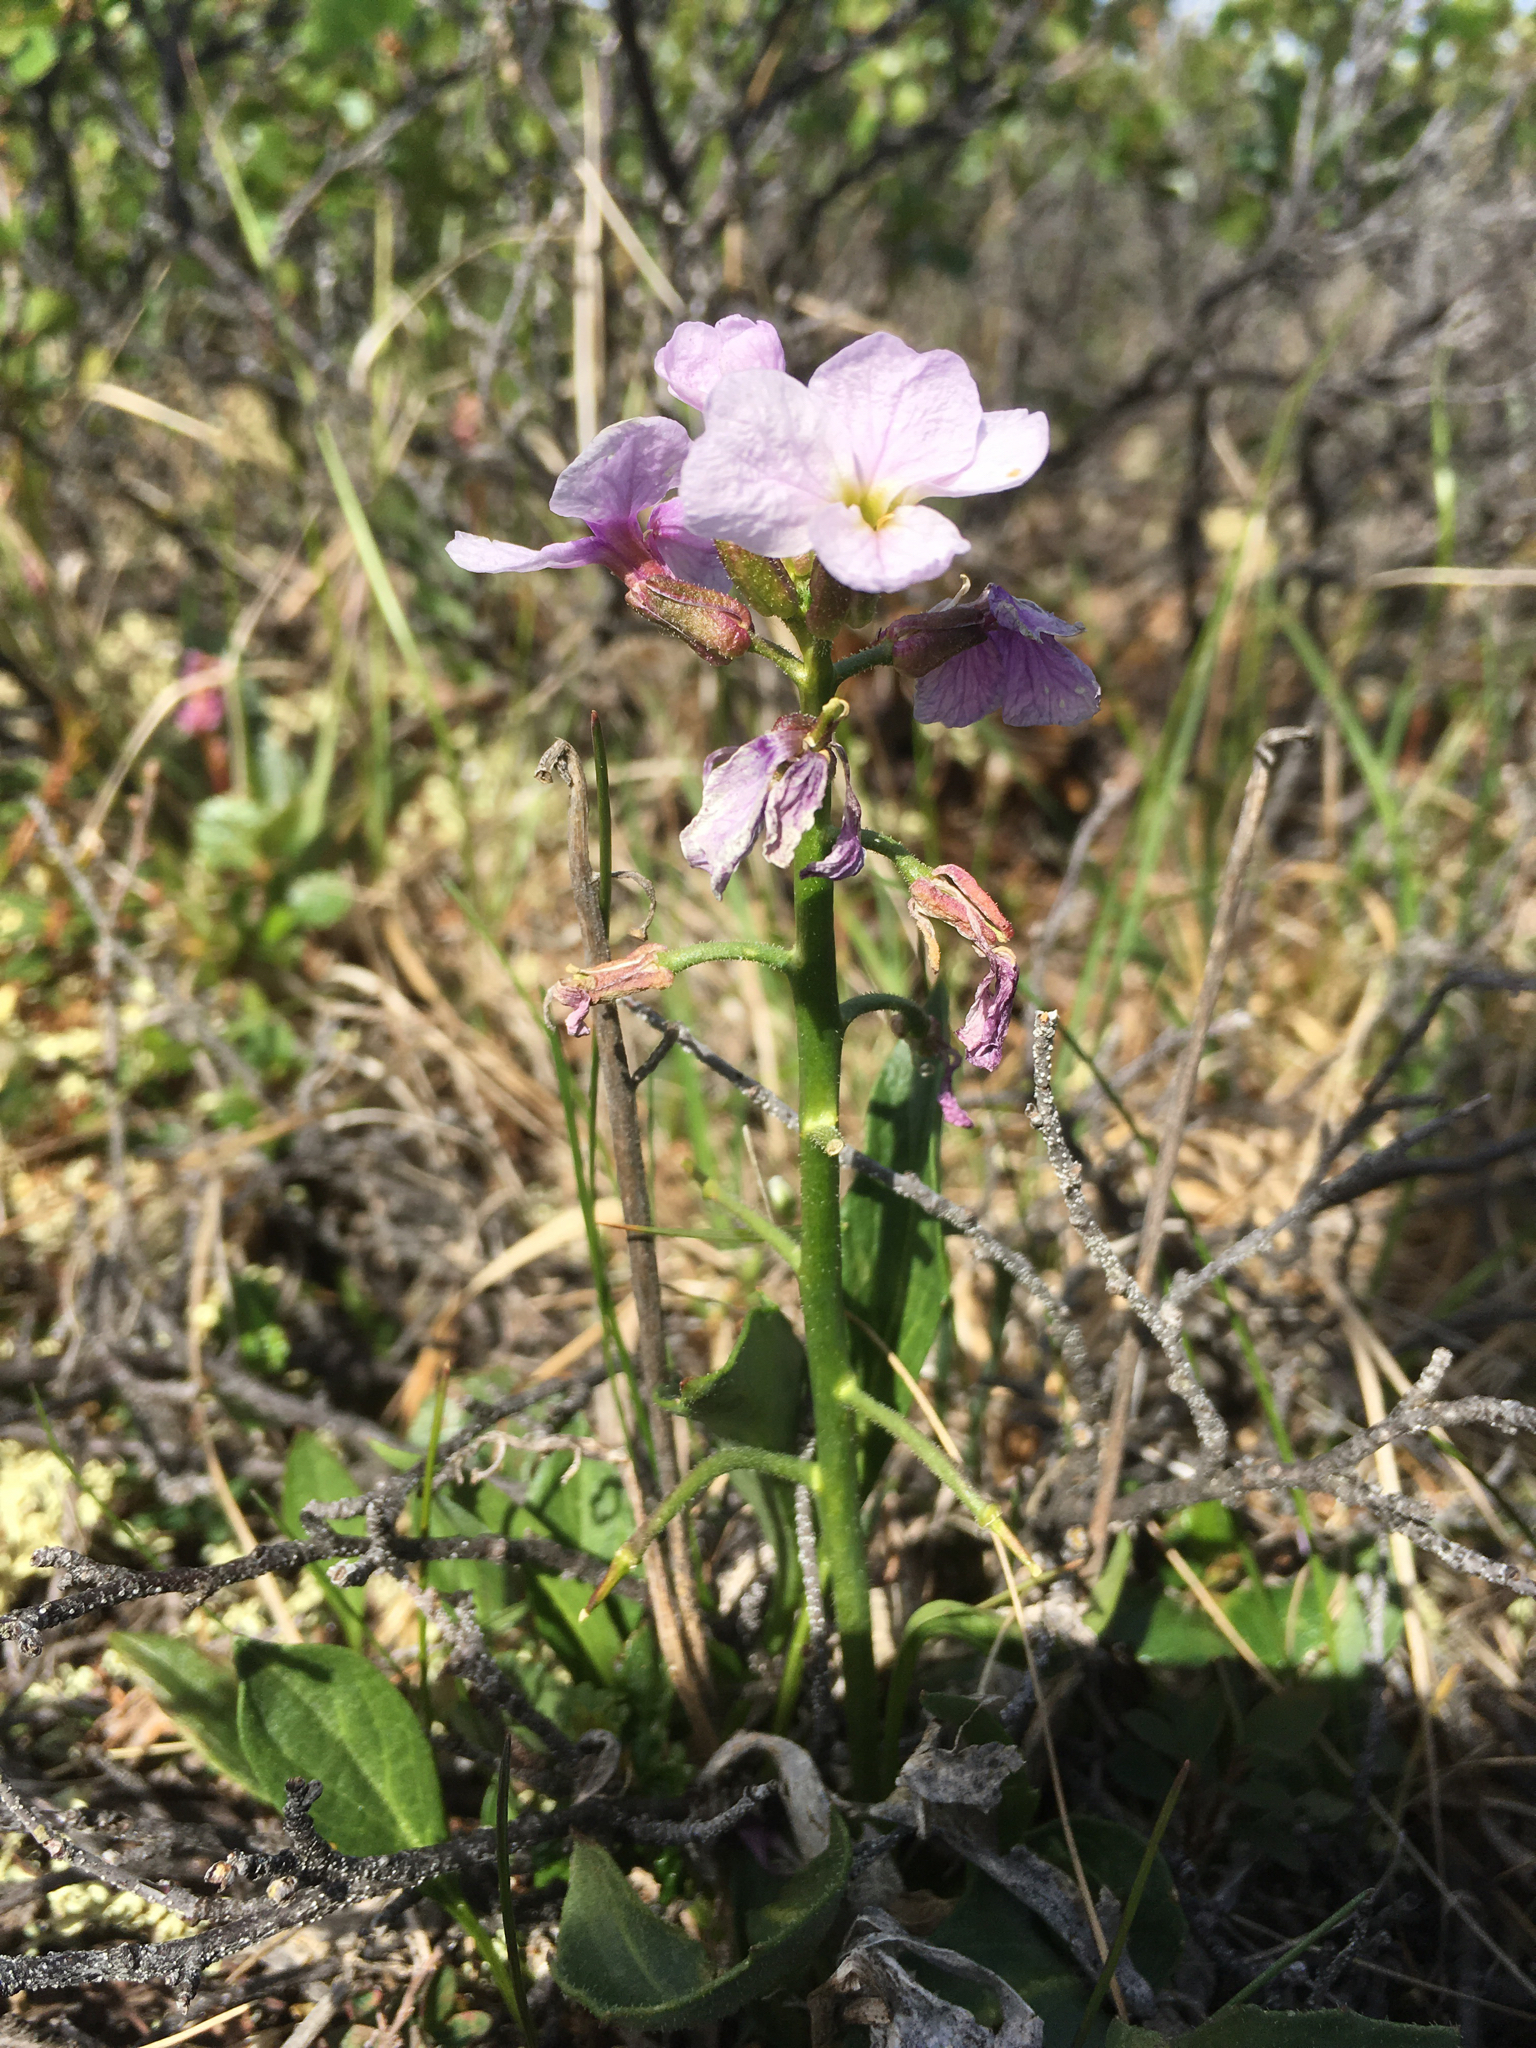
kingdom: Plantae
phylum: Tracheophyta
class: Magnoliopsida
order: Brassicales
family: Brassicaceae
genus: Parrya
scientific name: Parrya nudicaulis
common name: Naked-stemmed false wallflower
